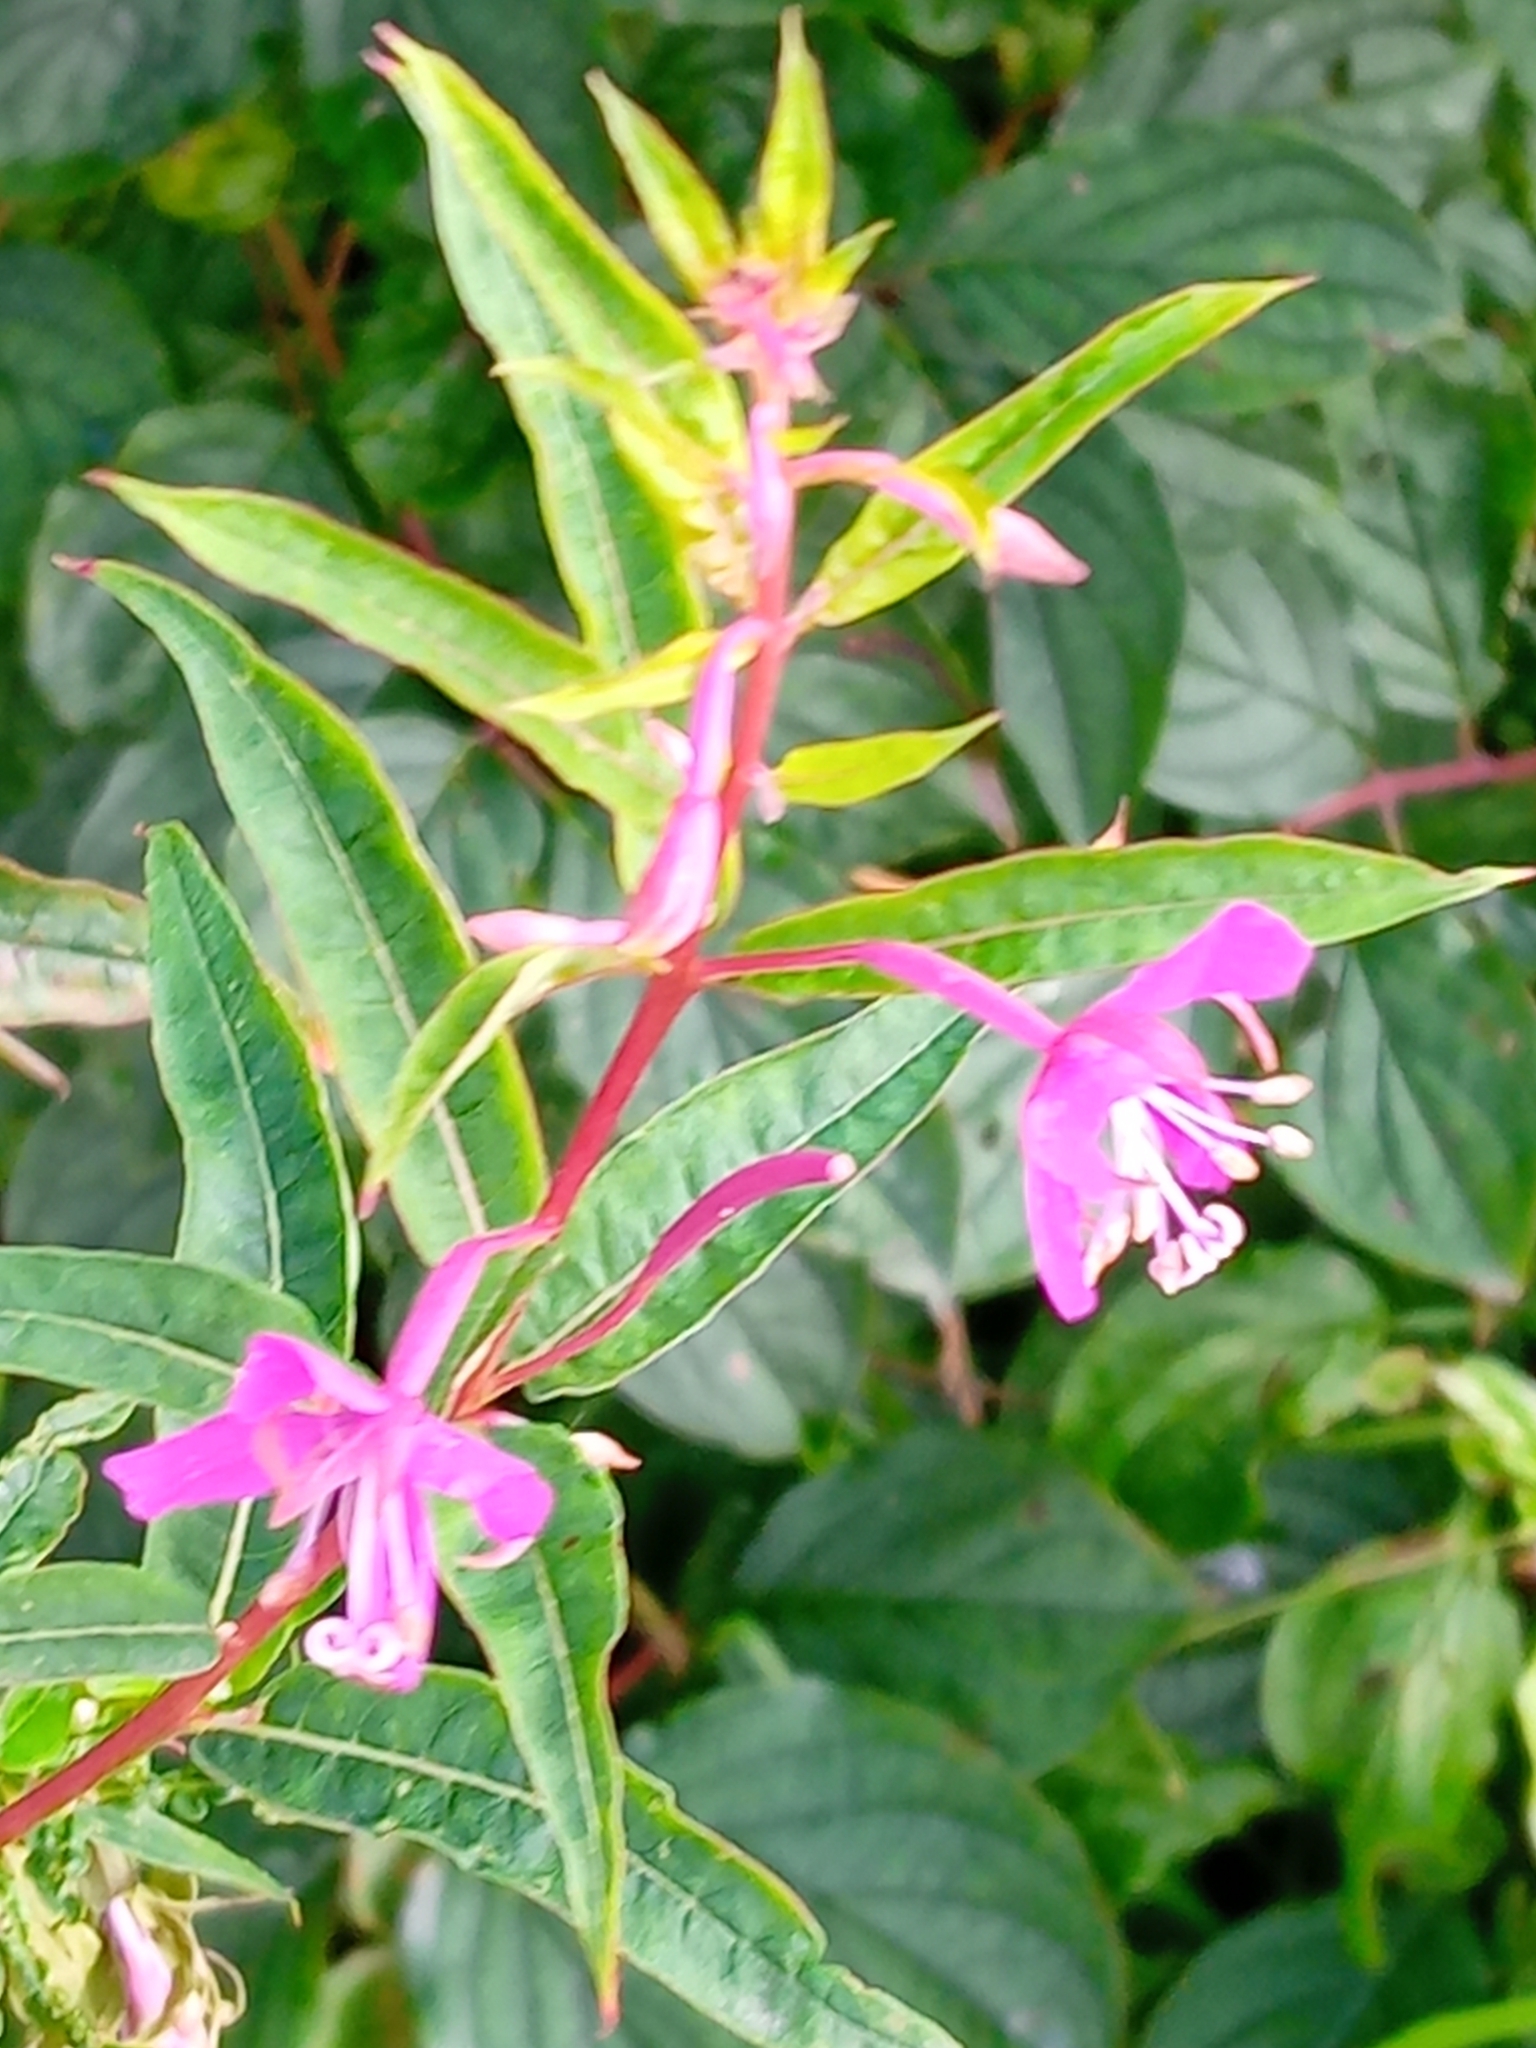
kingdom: Plantae
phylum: Tracheophyta
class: Magnoliopsida
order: Myrtales
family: Onagraceae
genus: Chamaenerion
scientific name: Chamaenerion angustifolium
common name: Fireweed
